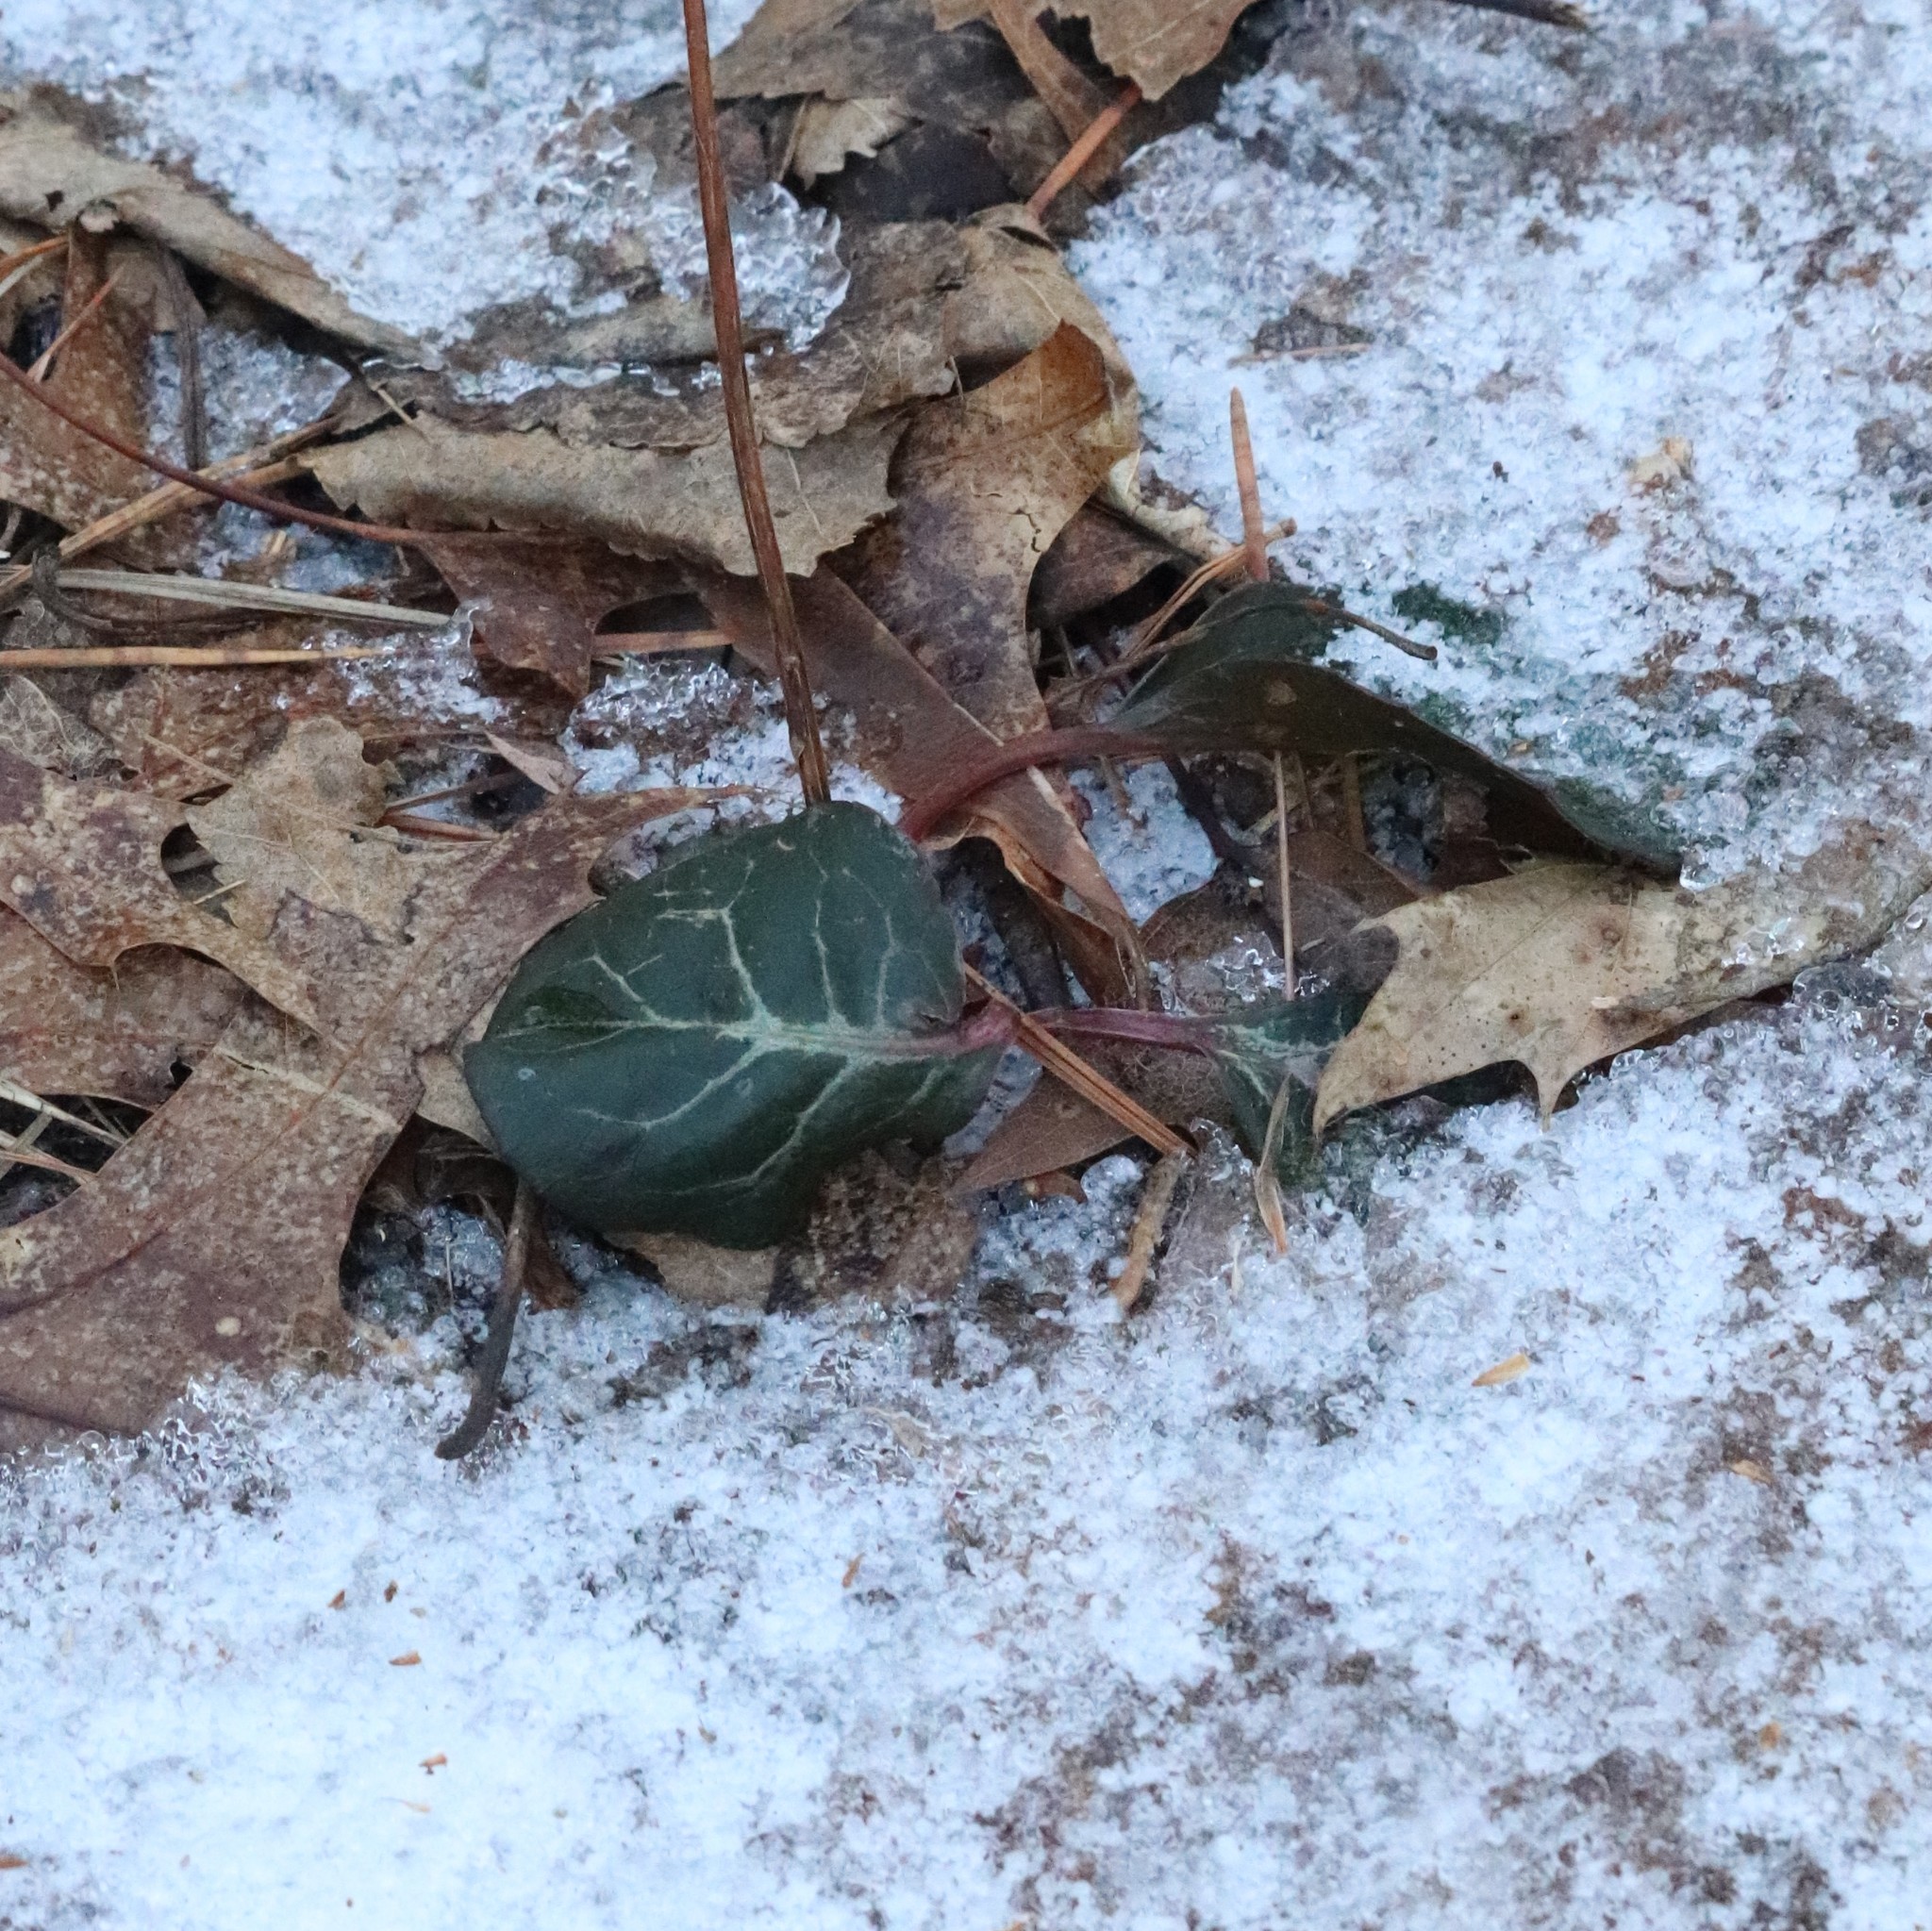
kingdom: Plantae
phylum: Tracheophyta
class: Magnoliopsida
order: Ericales
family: Ericaceae
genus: Pyrola
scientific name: Pyrola americana
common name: American wintergreen
